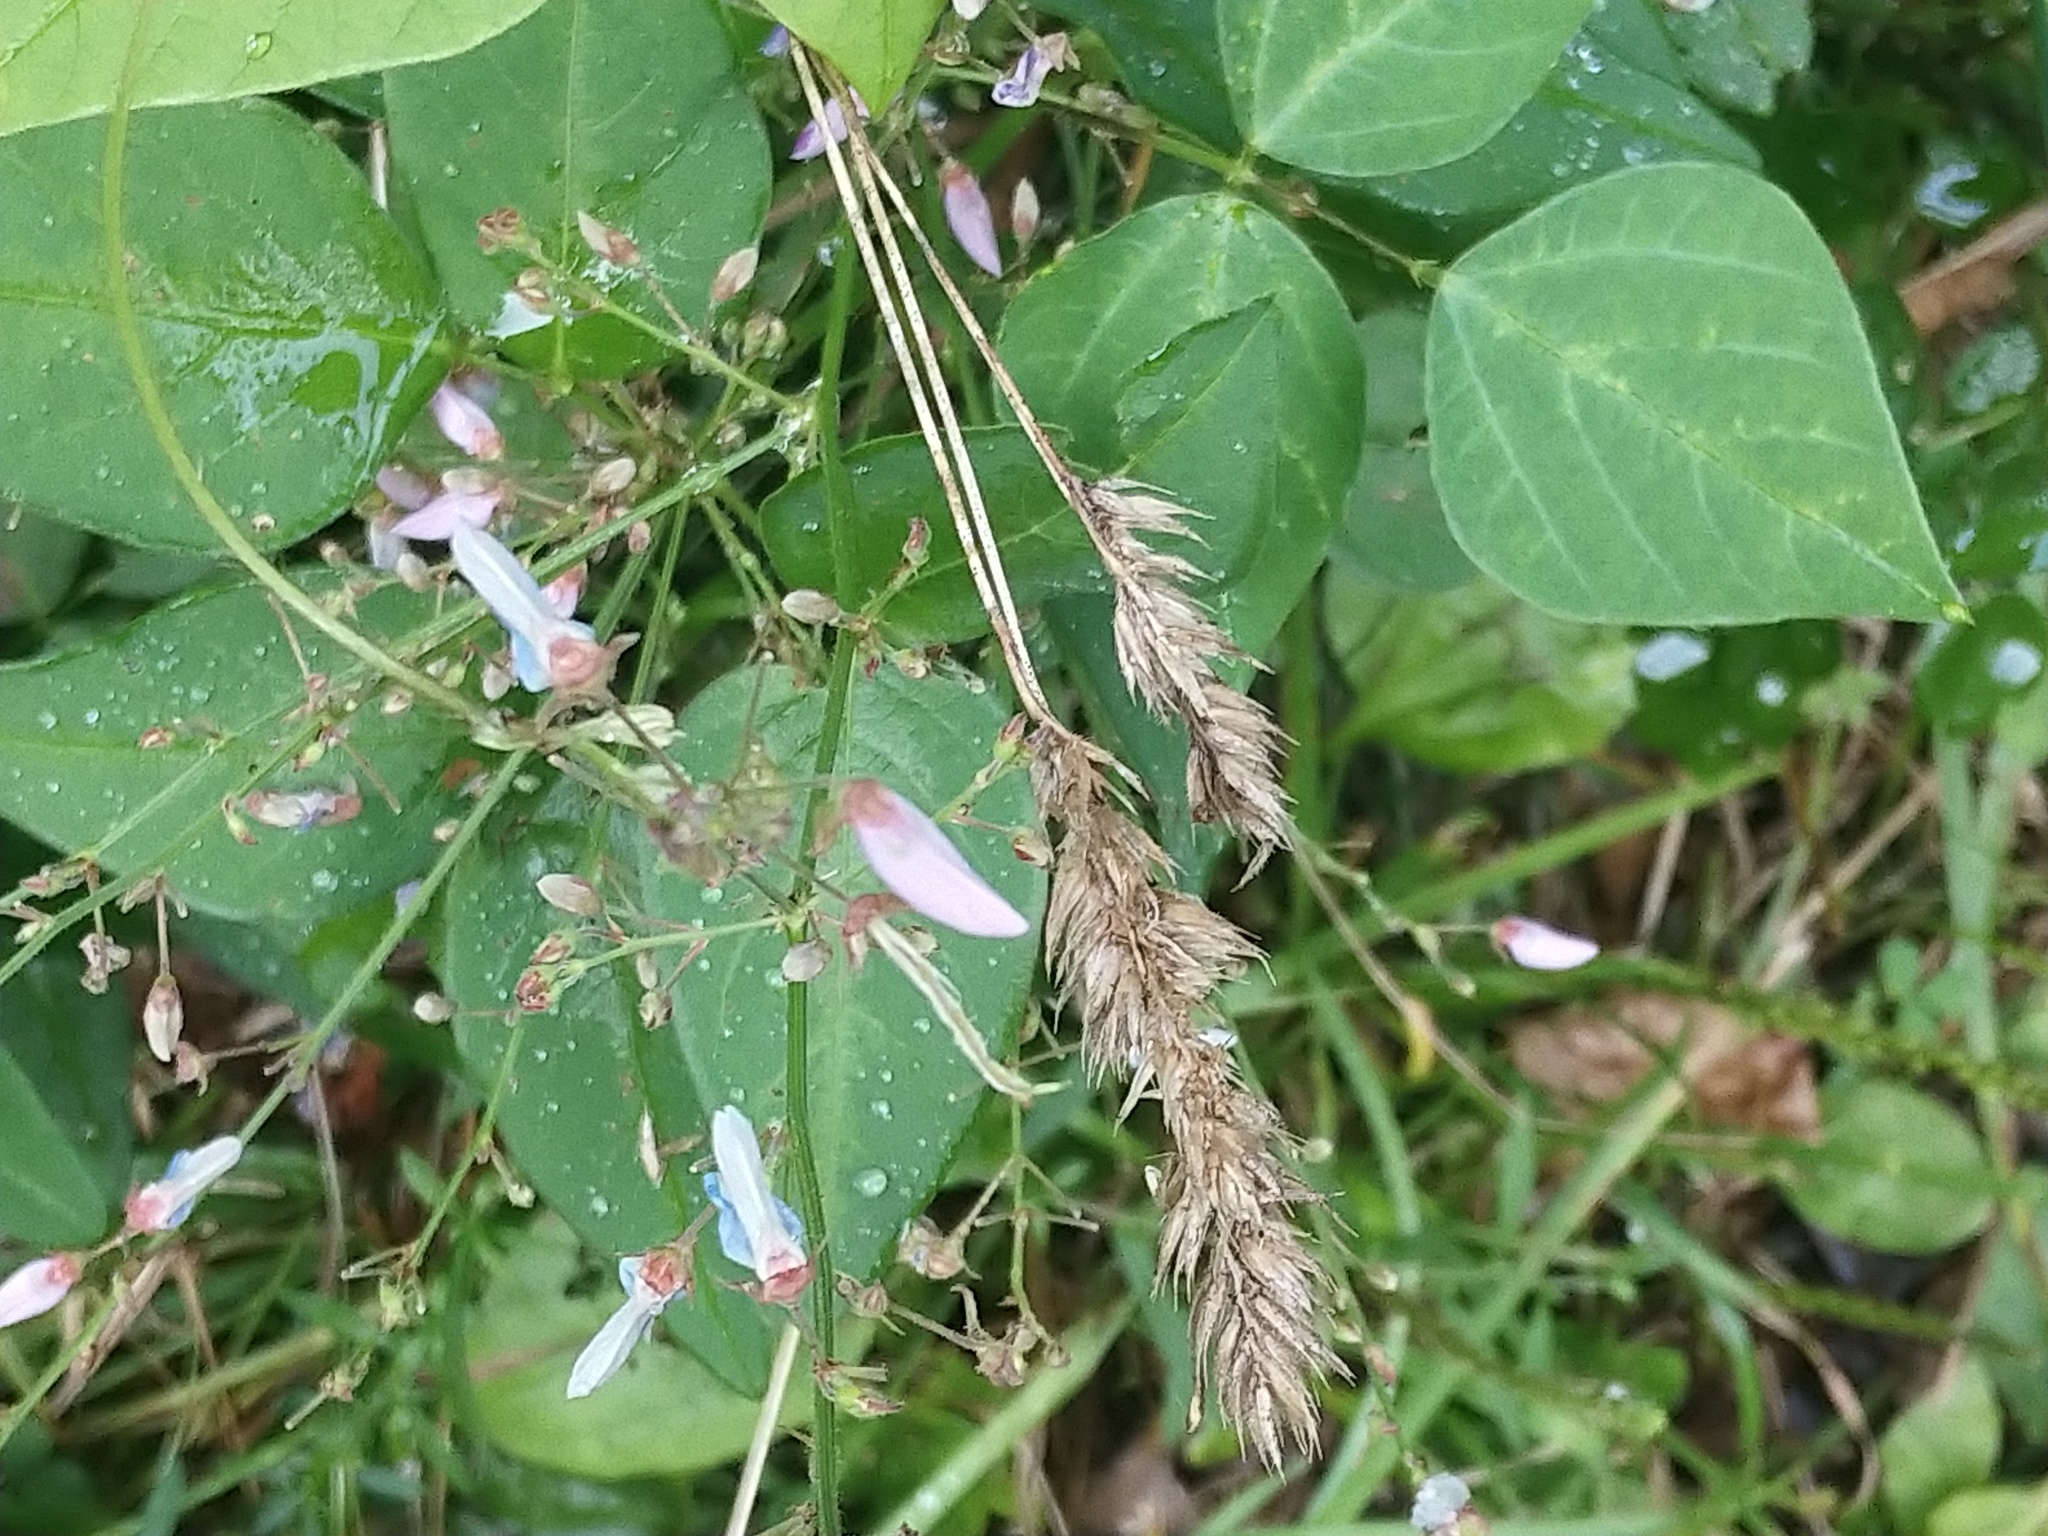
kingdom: Plantae
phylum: Tracheophyta
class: Magnoliopsida
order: Fabales
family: Fabaceae
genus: Hylodesmum
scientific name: Hylodesmum glutinosum
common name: Clustered-leaved tick-trefoil
